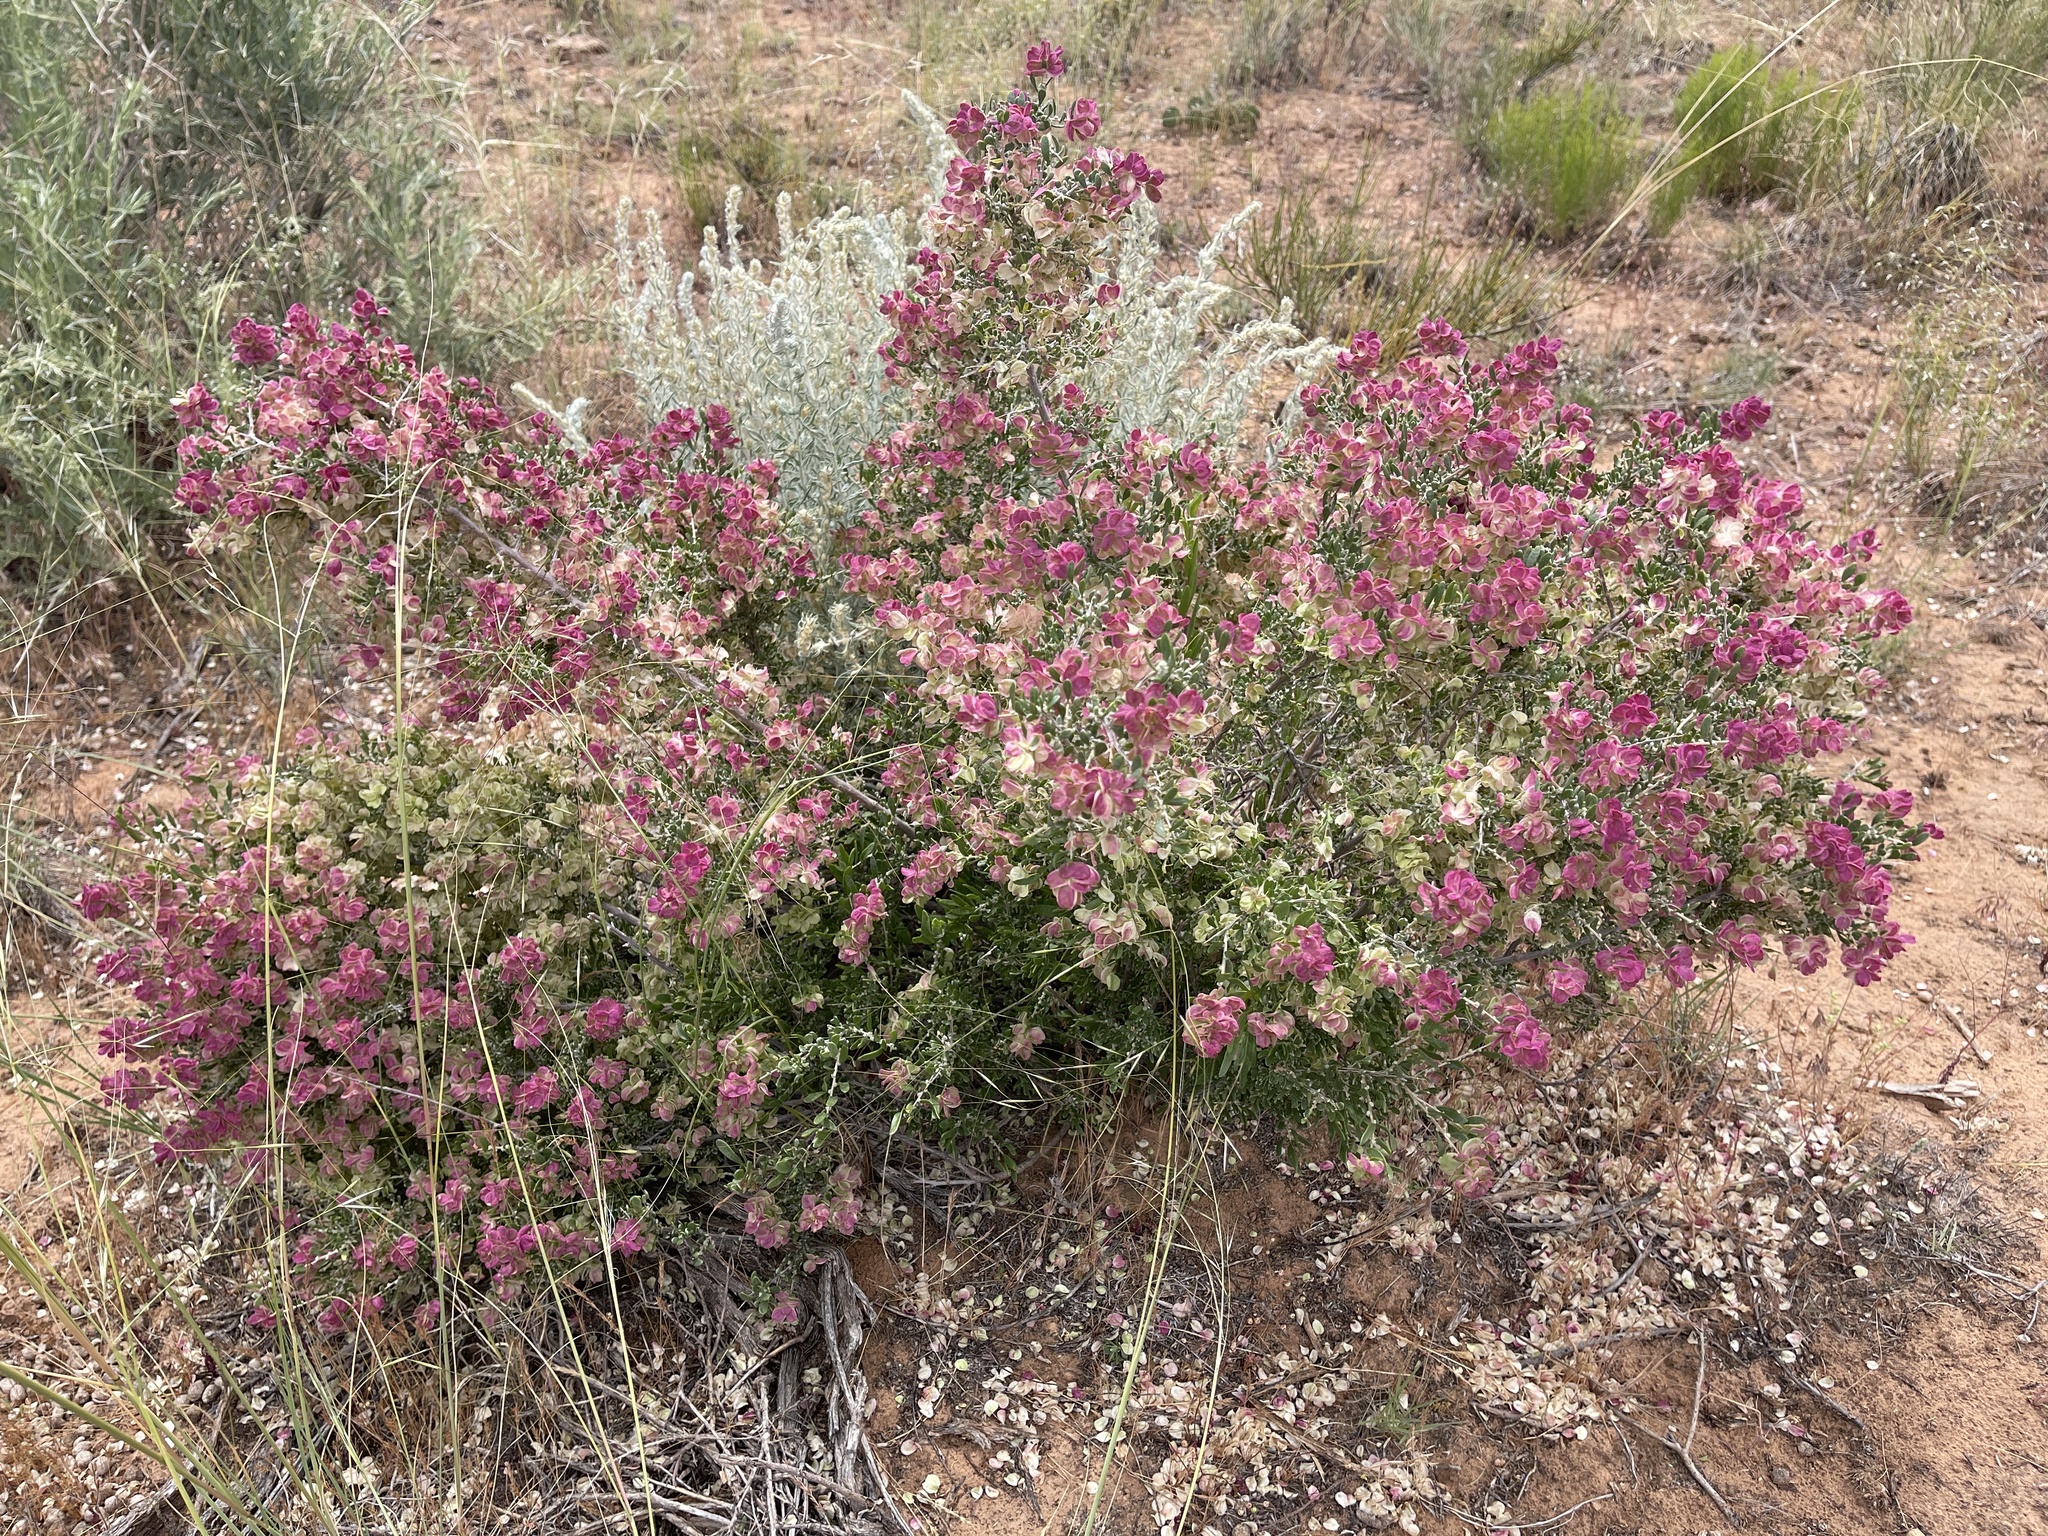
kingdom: Plantae
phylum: Tracheophyta
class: Magnoliopsida
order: Caryophyllales
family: Amaranthaceae
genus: Grayia
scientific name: Grayia spinosa
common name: Spiny hopsage
